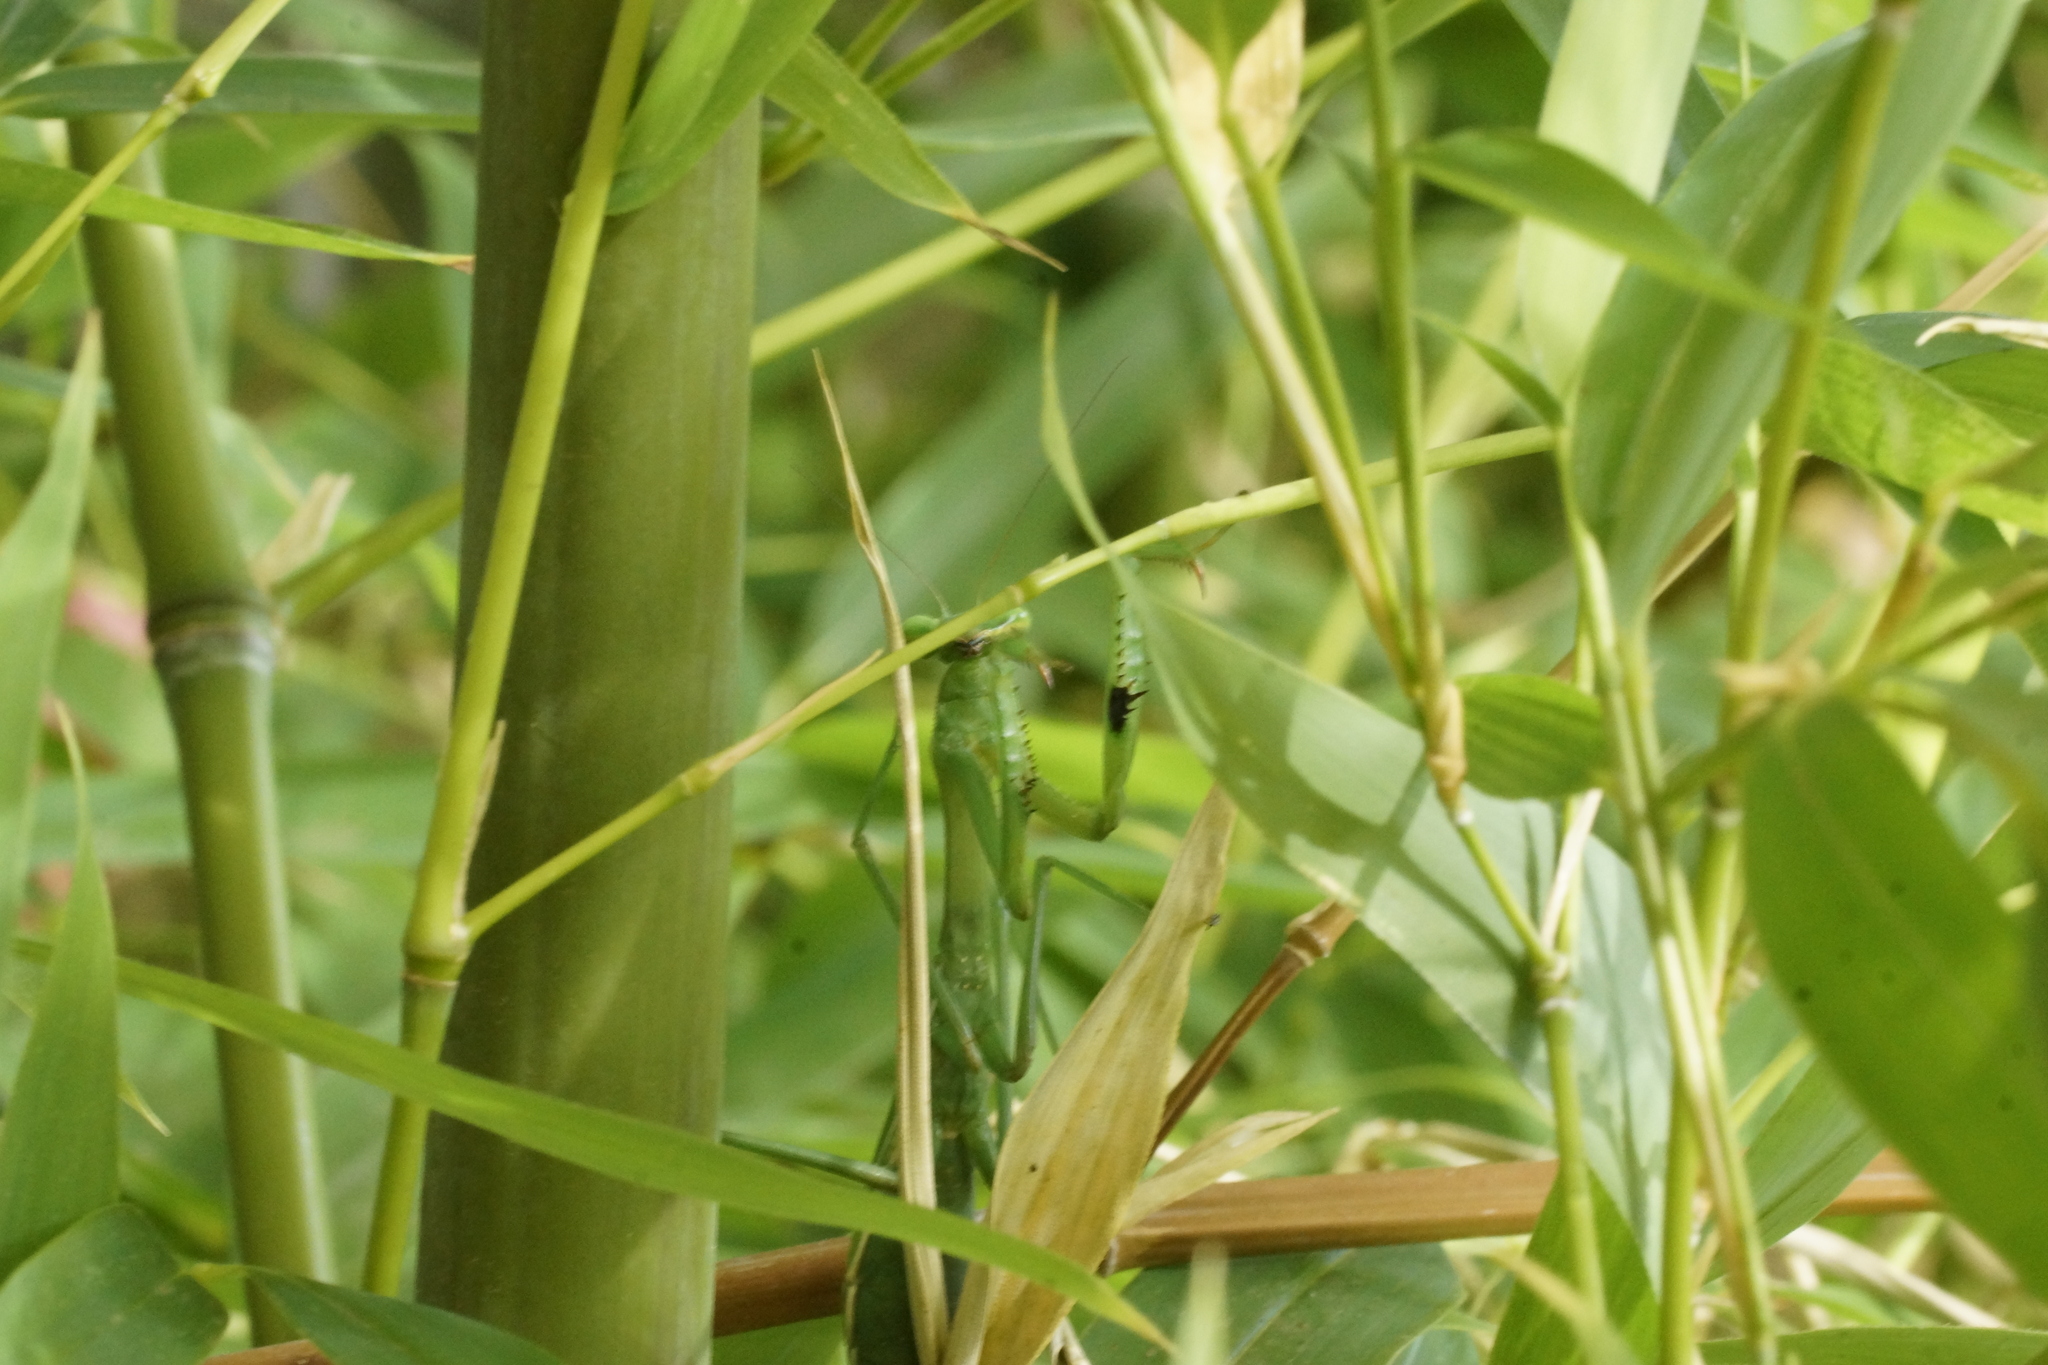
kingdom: Animalia
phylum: Arthropoda
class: Insecta
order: Mantodea
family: Mantidae
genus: Pseudomantis
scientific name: Pseudomantis albofimbriata
